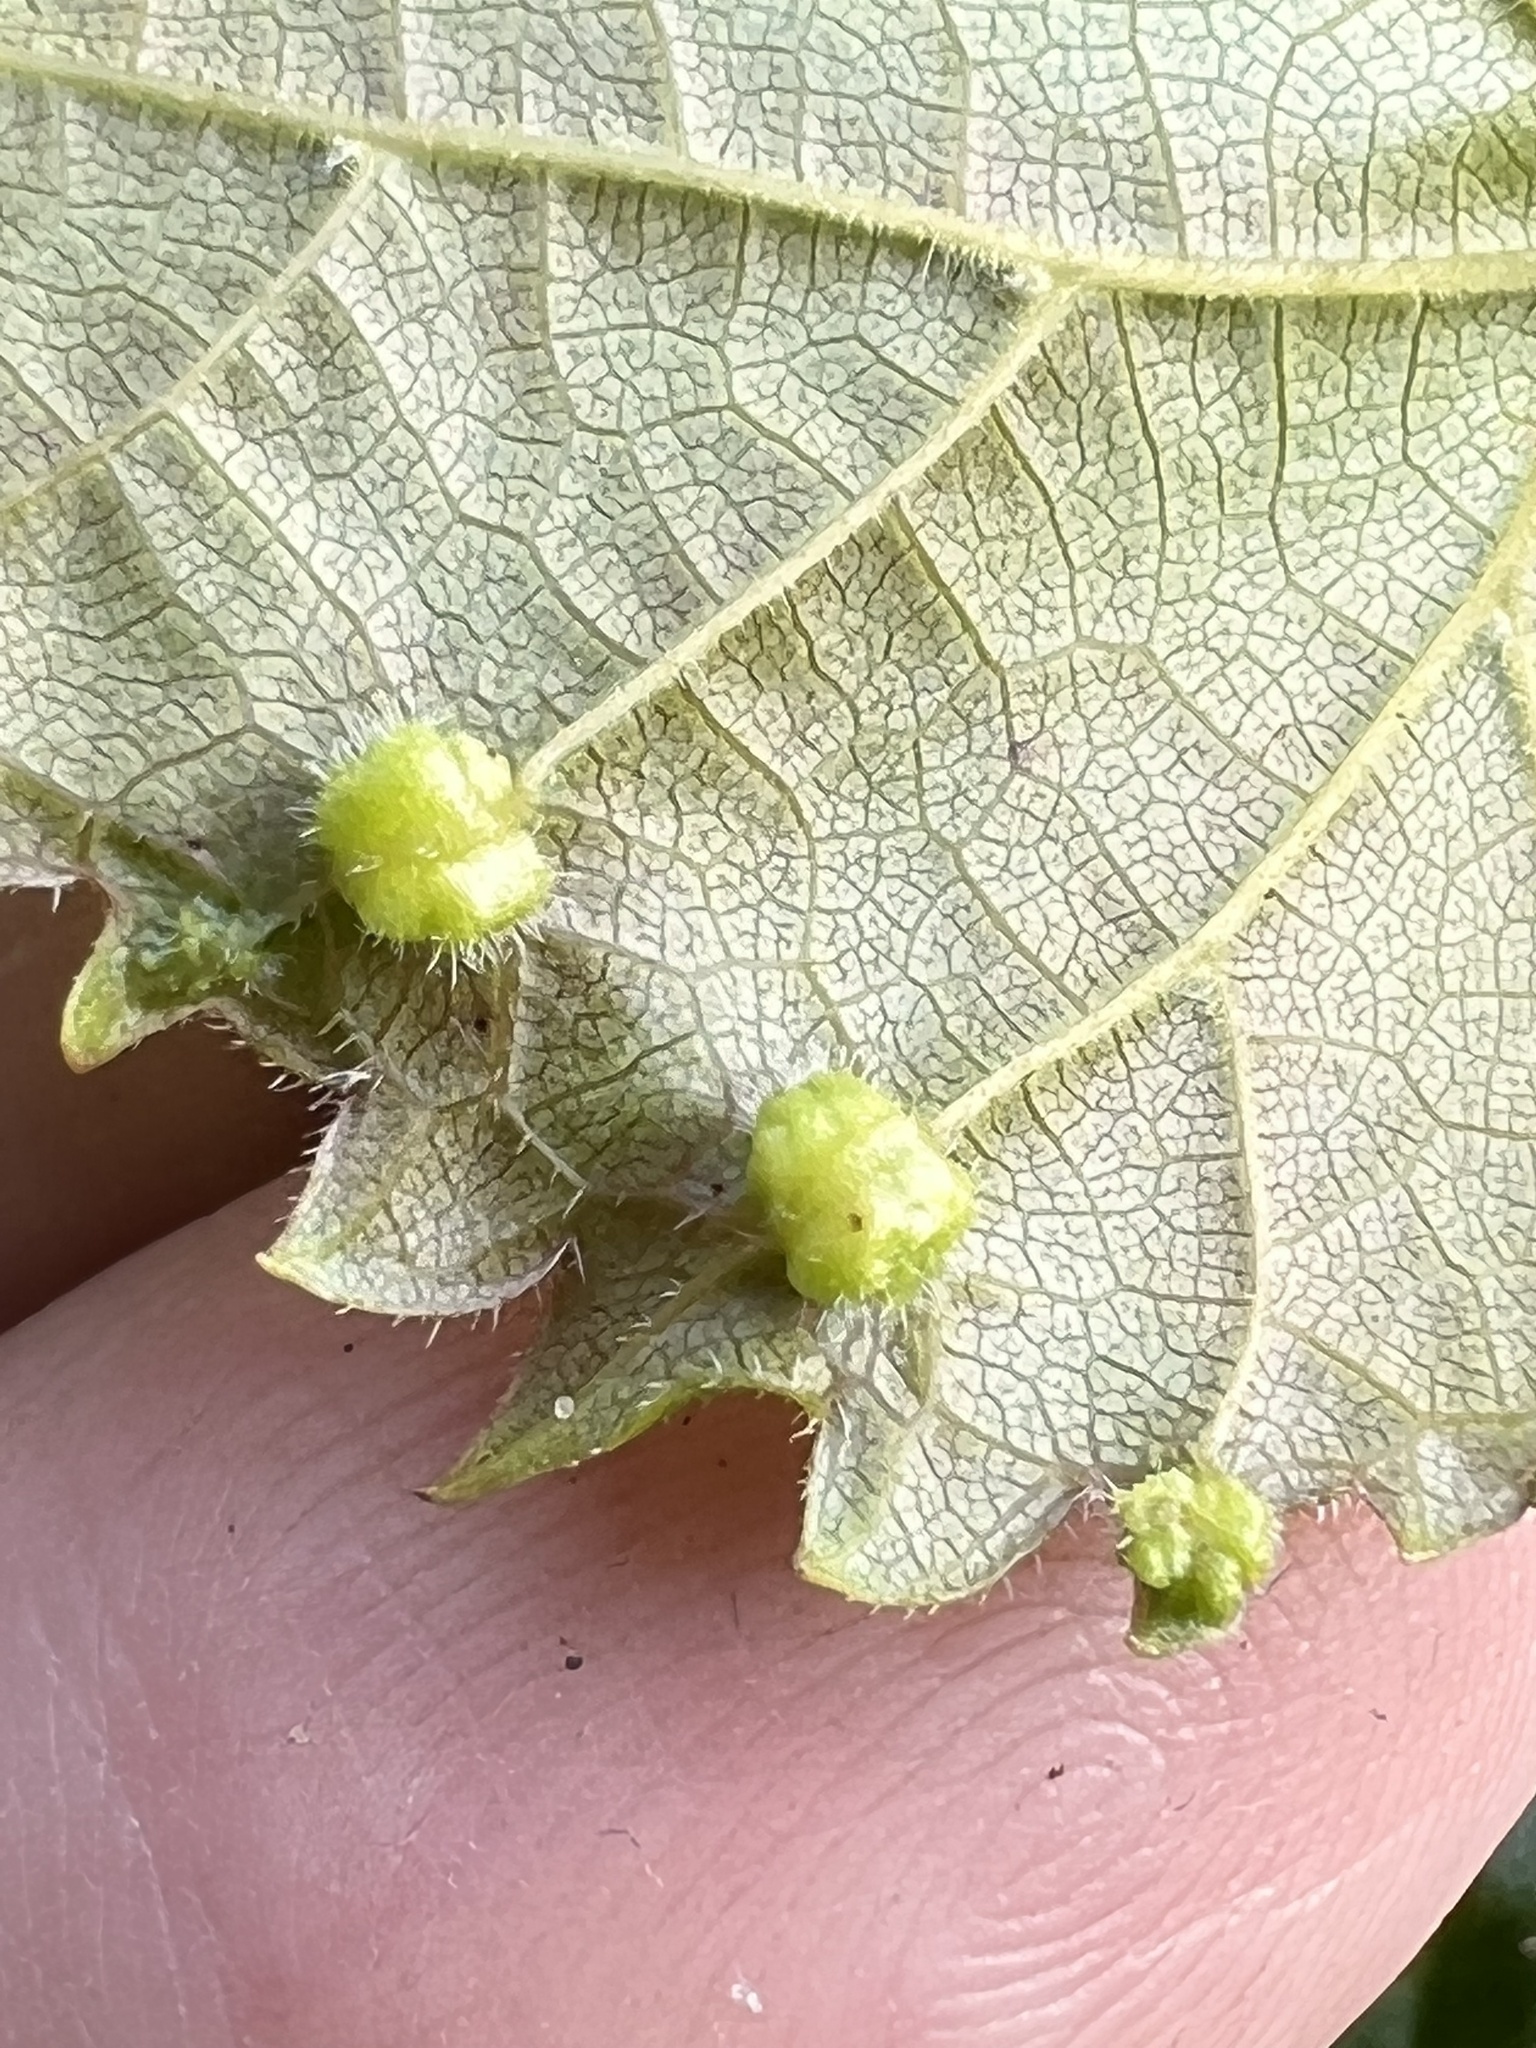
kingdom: Animalia
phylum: Arthropoda
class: Insecta
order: Hemiptera
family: Phylloxeridae
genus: Daktulosphaira
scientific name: Daktulosphaira vitifoliae
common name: Grape phylloxera
